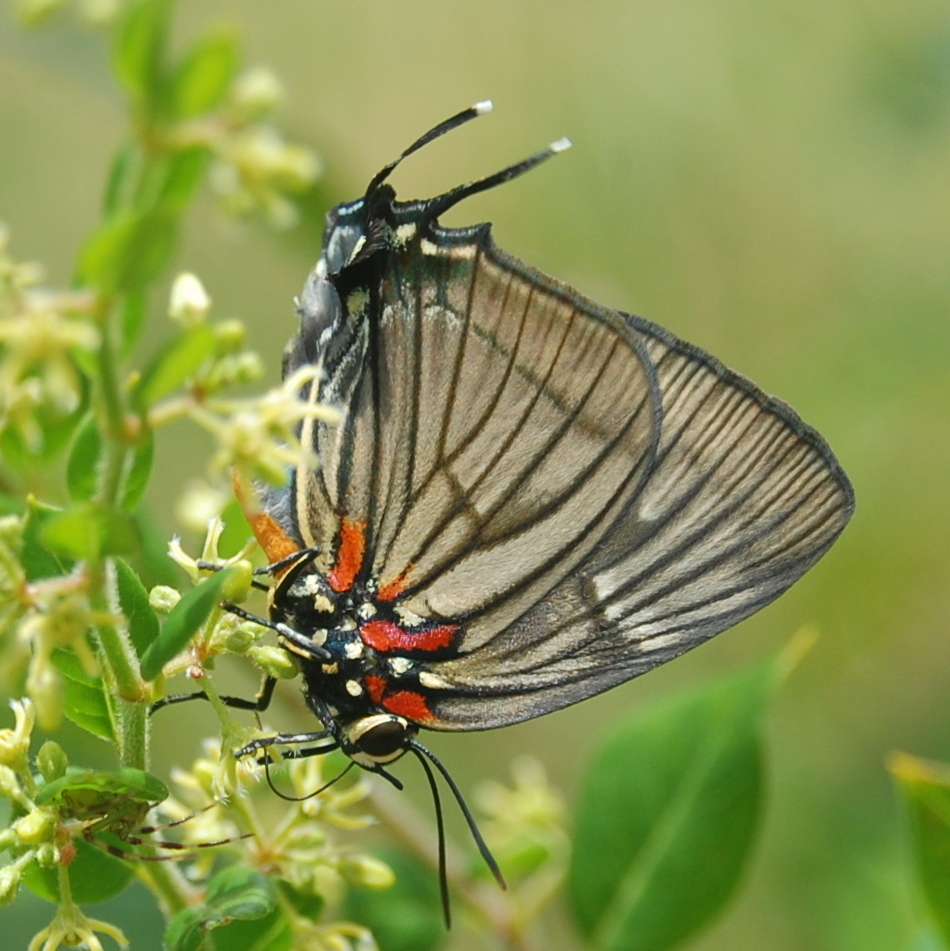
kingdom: Animalia
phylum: Arthropoda
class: Insecta
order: Lepidoptera
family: Lycaenidae
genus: Atlides
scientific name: Atlides
